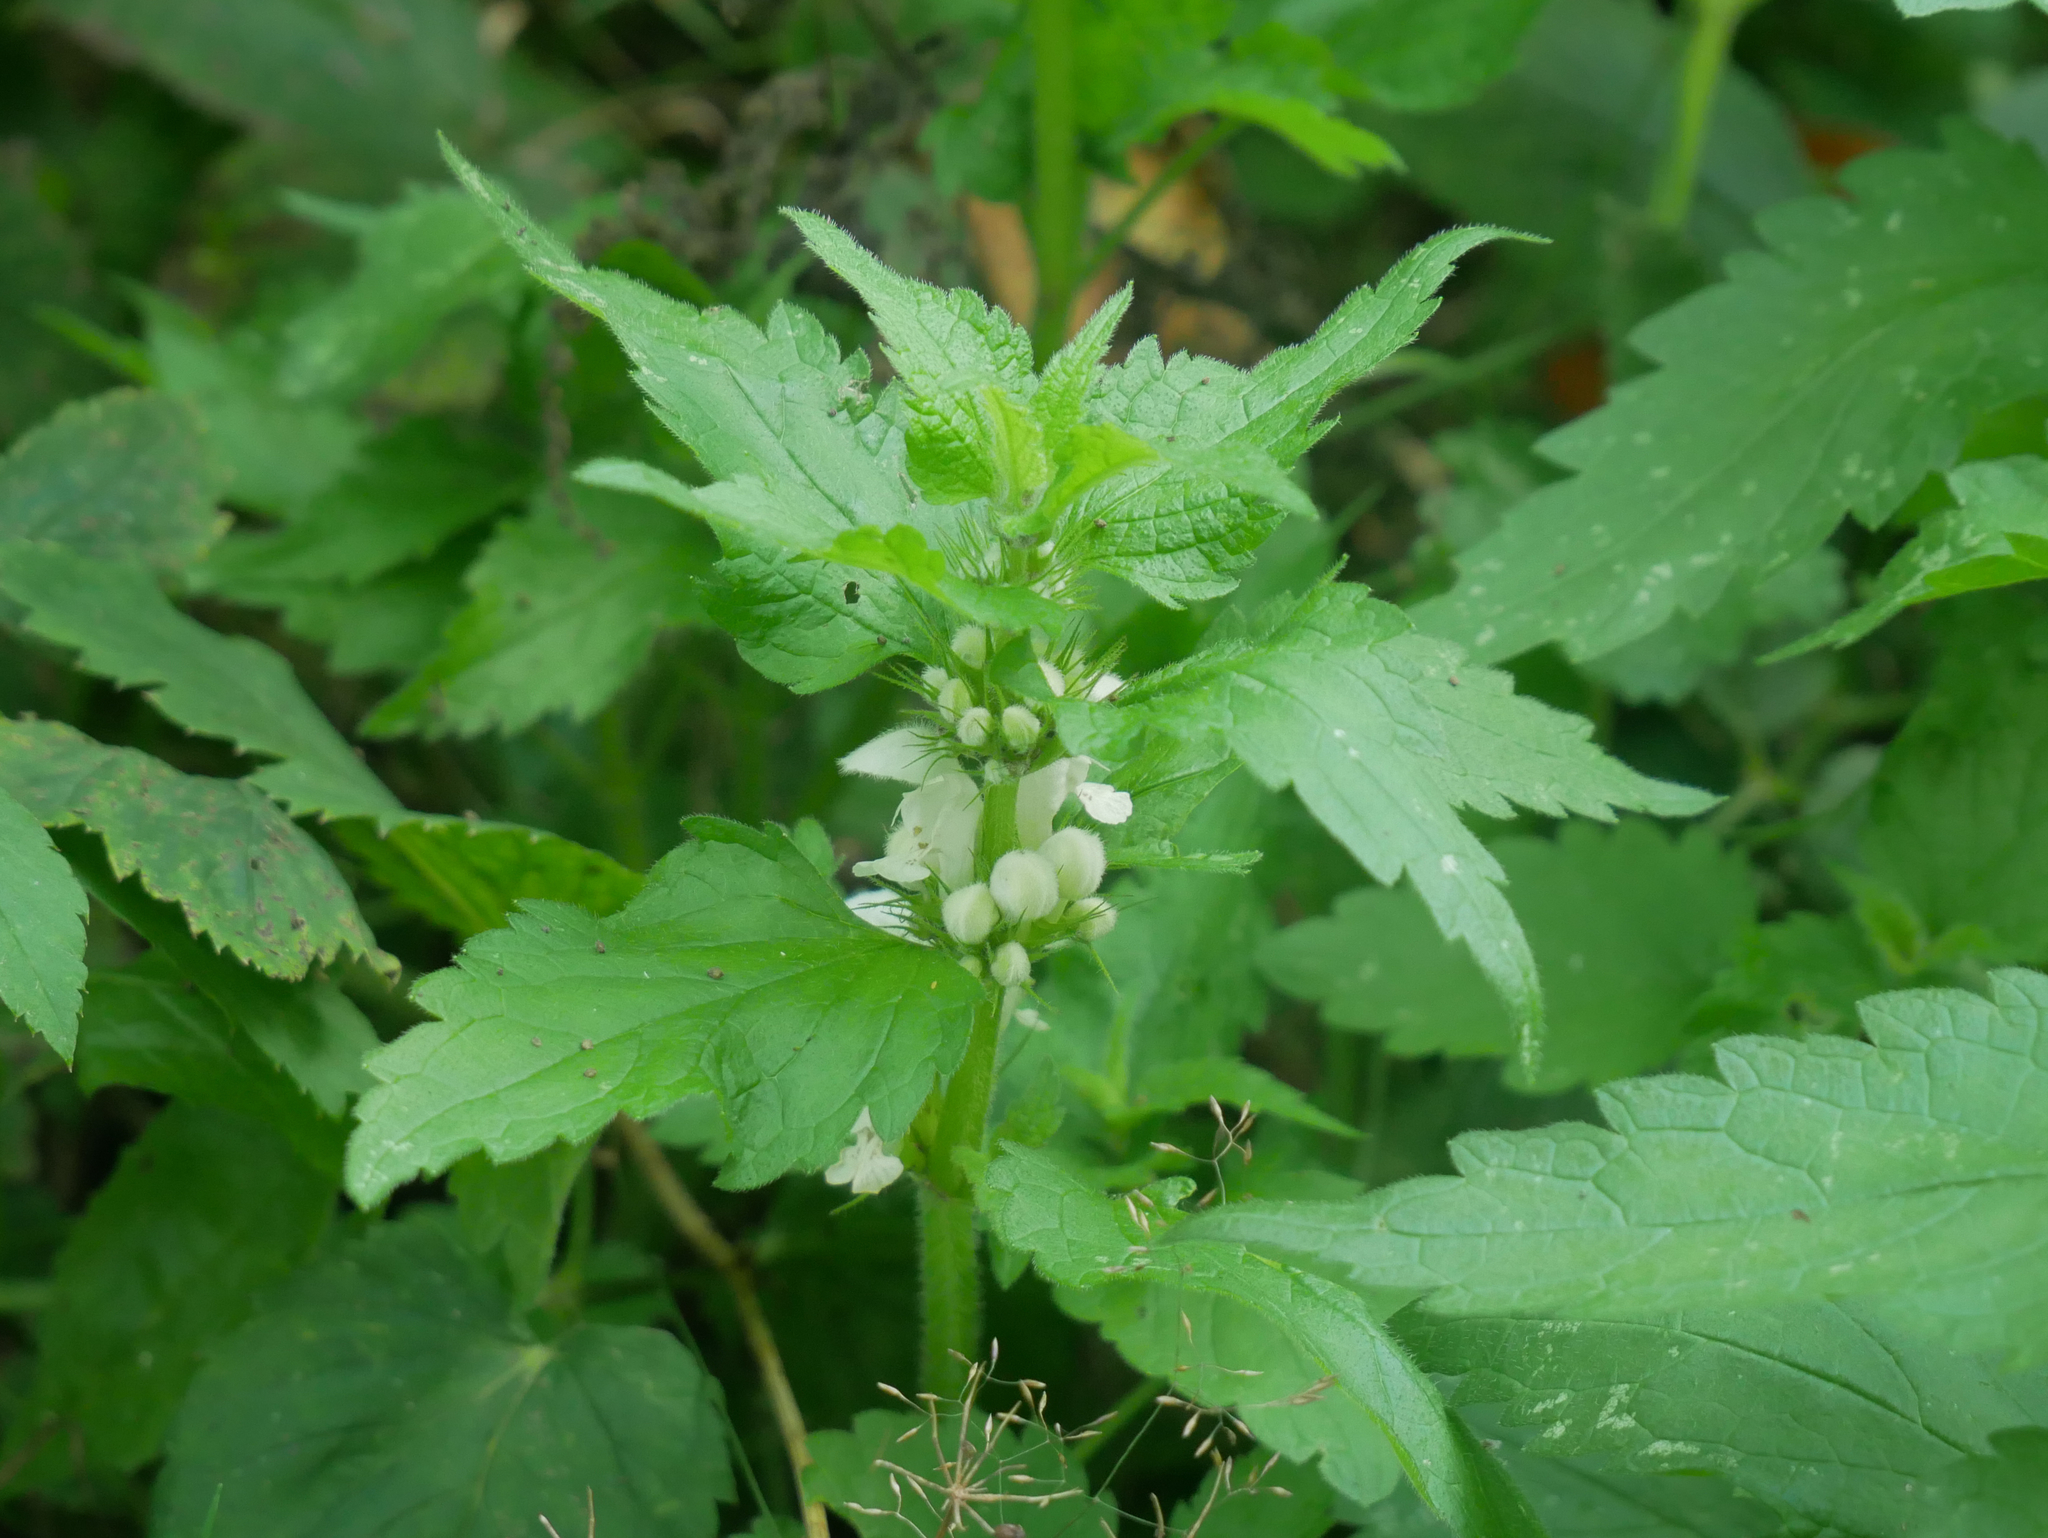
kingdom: Plantae
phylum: Tracheophyta
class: Magnoliopsida
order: Lamiales
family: Lamiaceae
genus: Lamium
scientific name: Lamium album
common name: White dead-nettle
